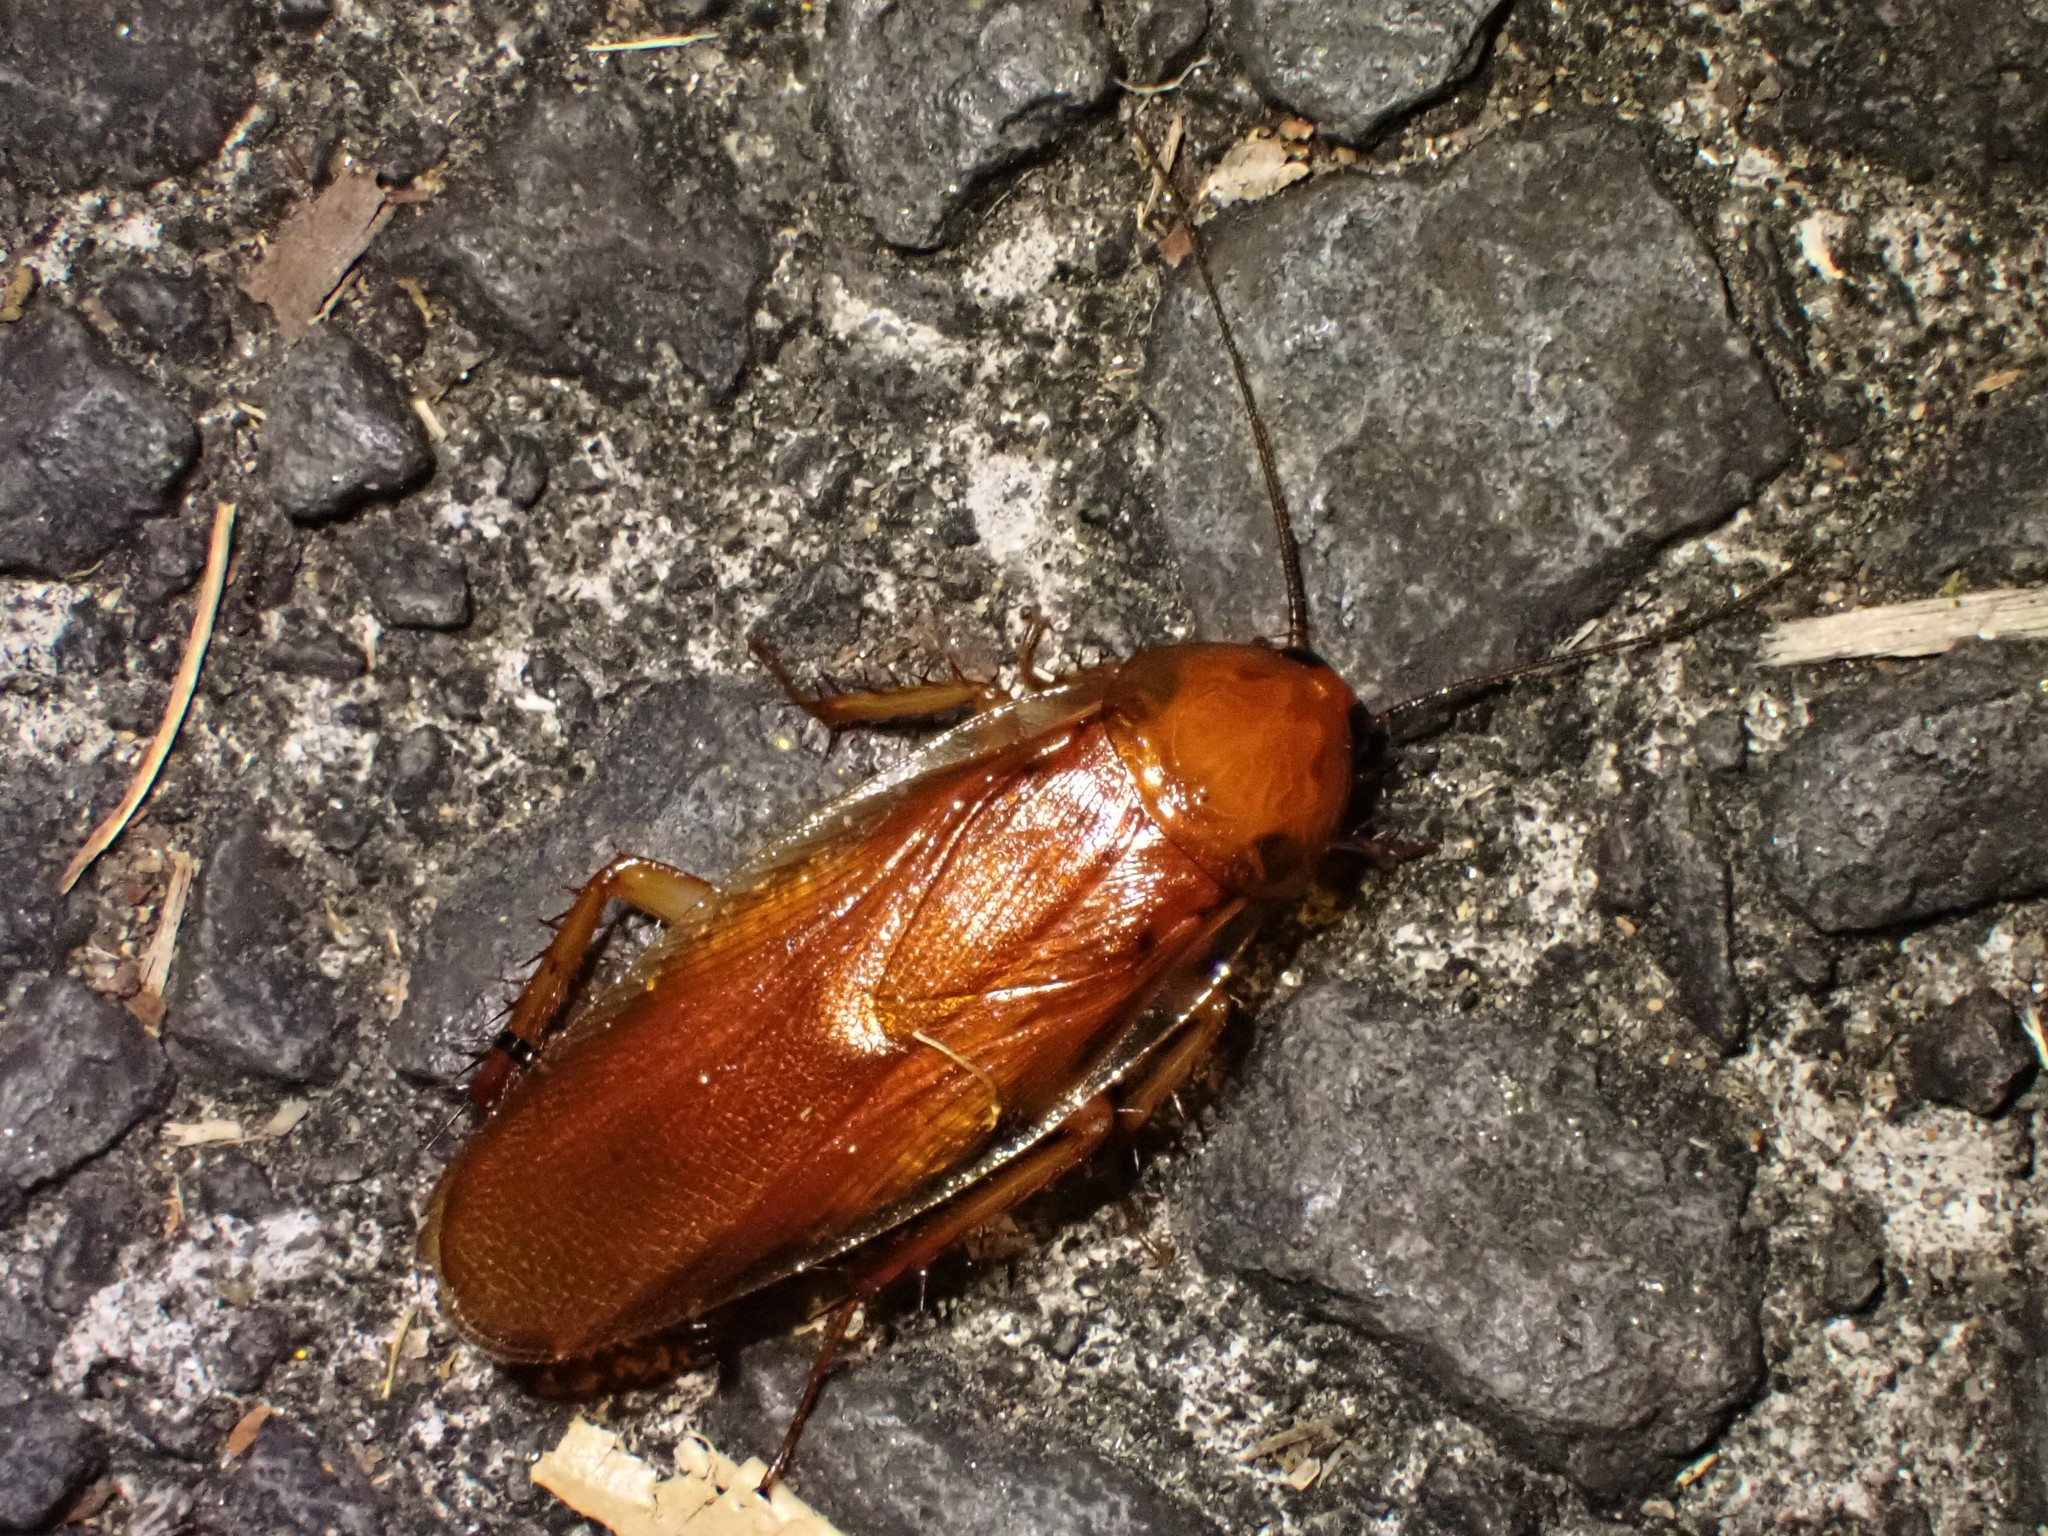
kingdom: Animalia
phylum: Arthropoda
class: Insecta
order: Blattodea
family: Ectobiidae
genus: Neotemnopteryx
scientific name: Neotemnopteryx fulva
